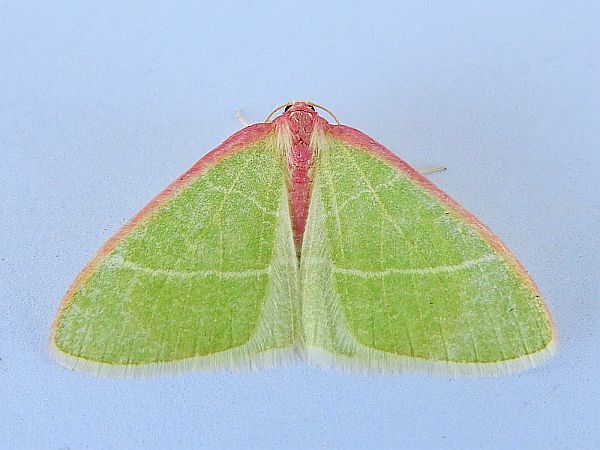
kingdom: Animalia
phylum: Arthropoda
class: Insecta
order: Lepidoptera
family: Geometridae
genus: Nemoria
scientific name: Nemoria latirosaria
